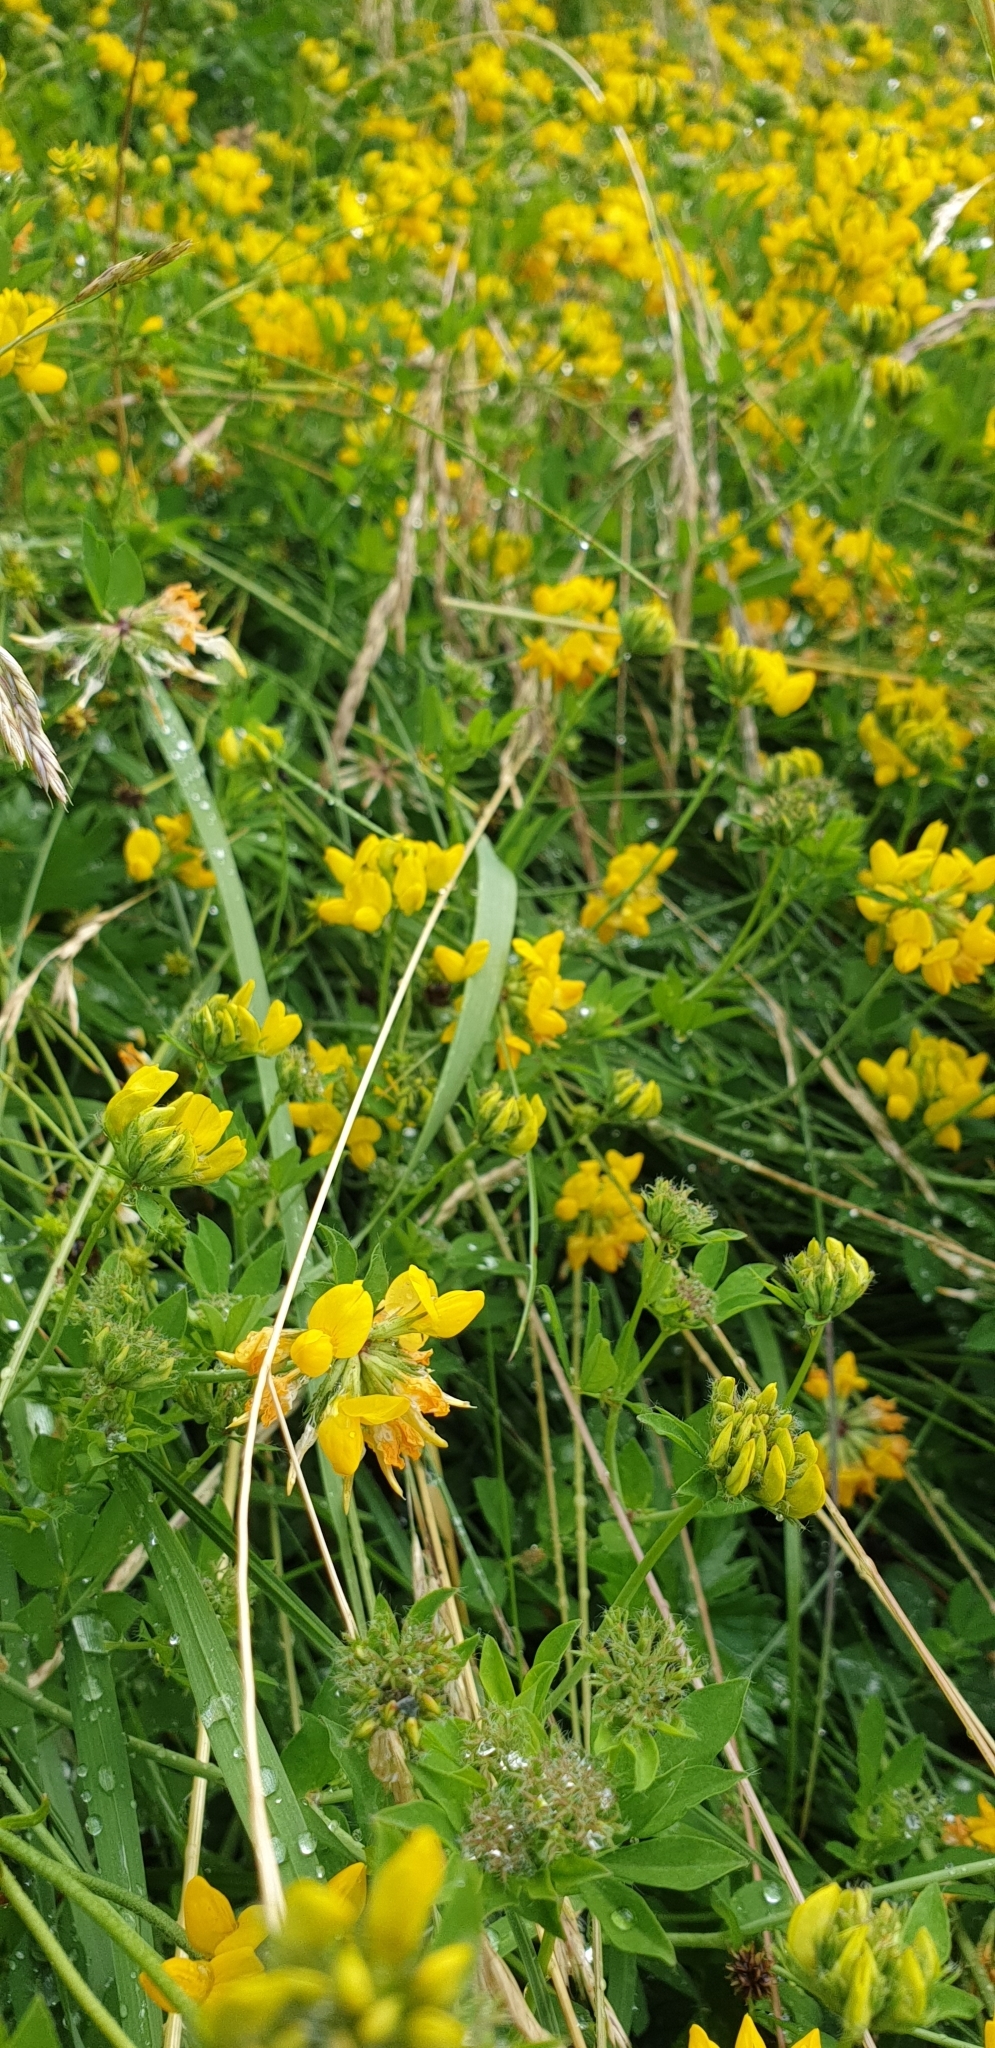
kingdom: Plantae
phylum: Tracheophyta
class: Magnoliopsida
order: Fabales
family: Fabaceae
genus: Lotus
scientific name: Lotus pedunculatus
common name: Greater birdsfoot-trefoil
